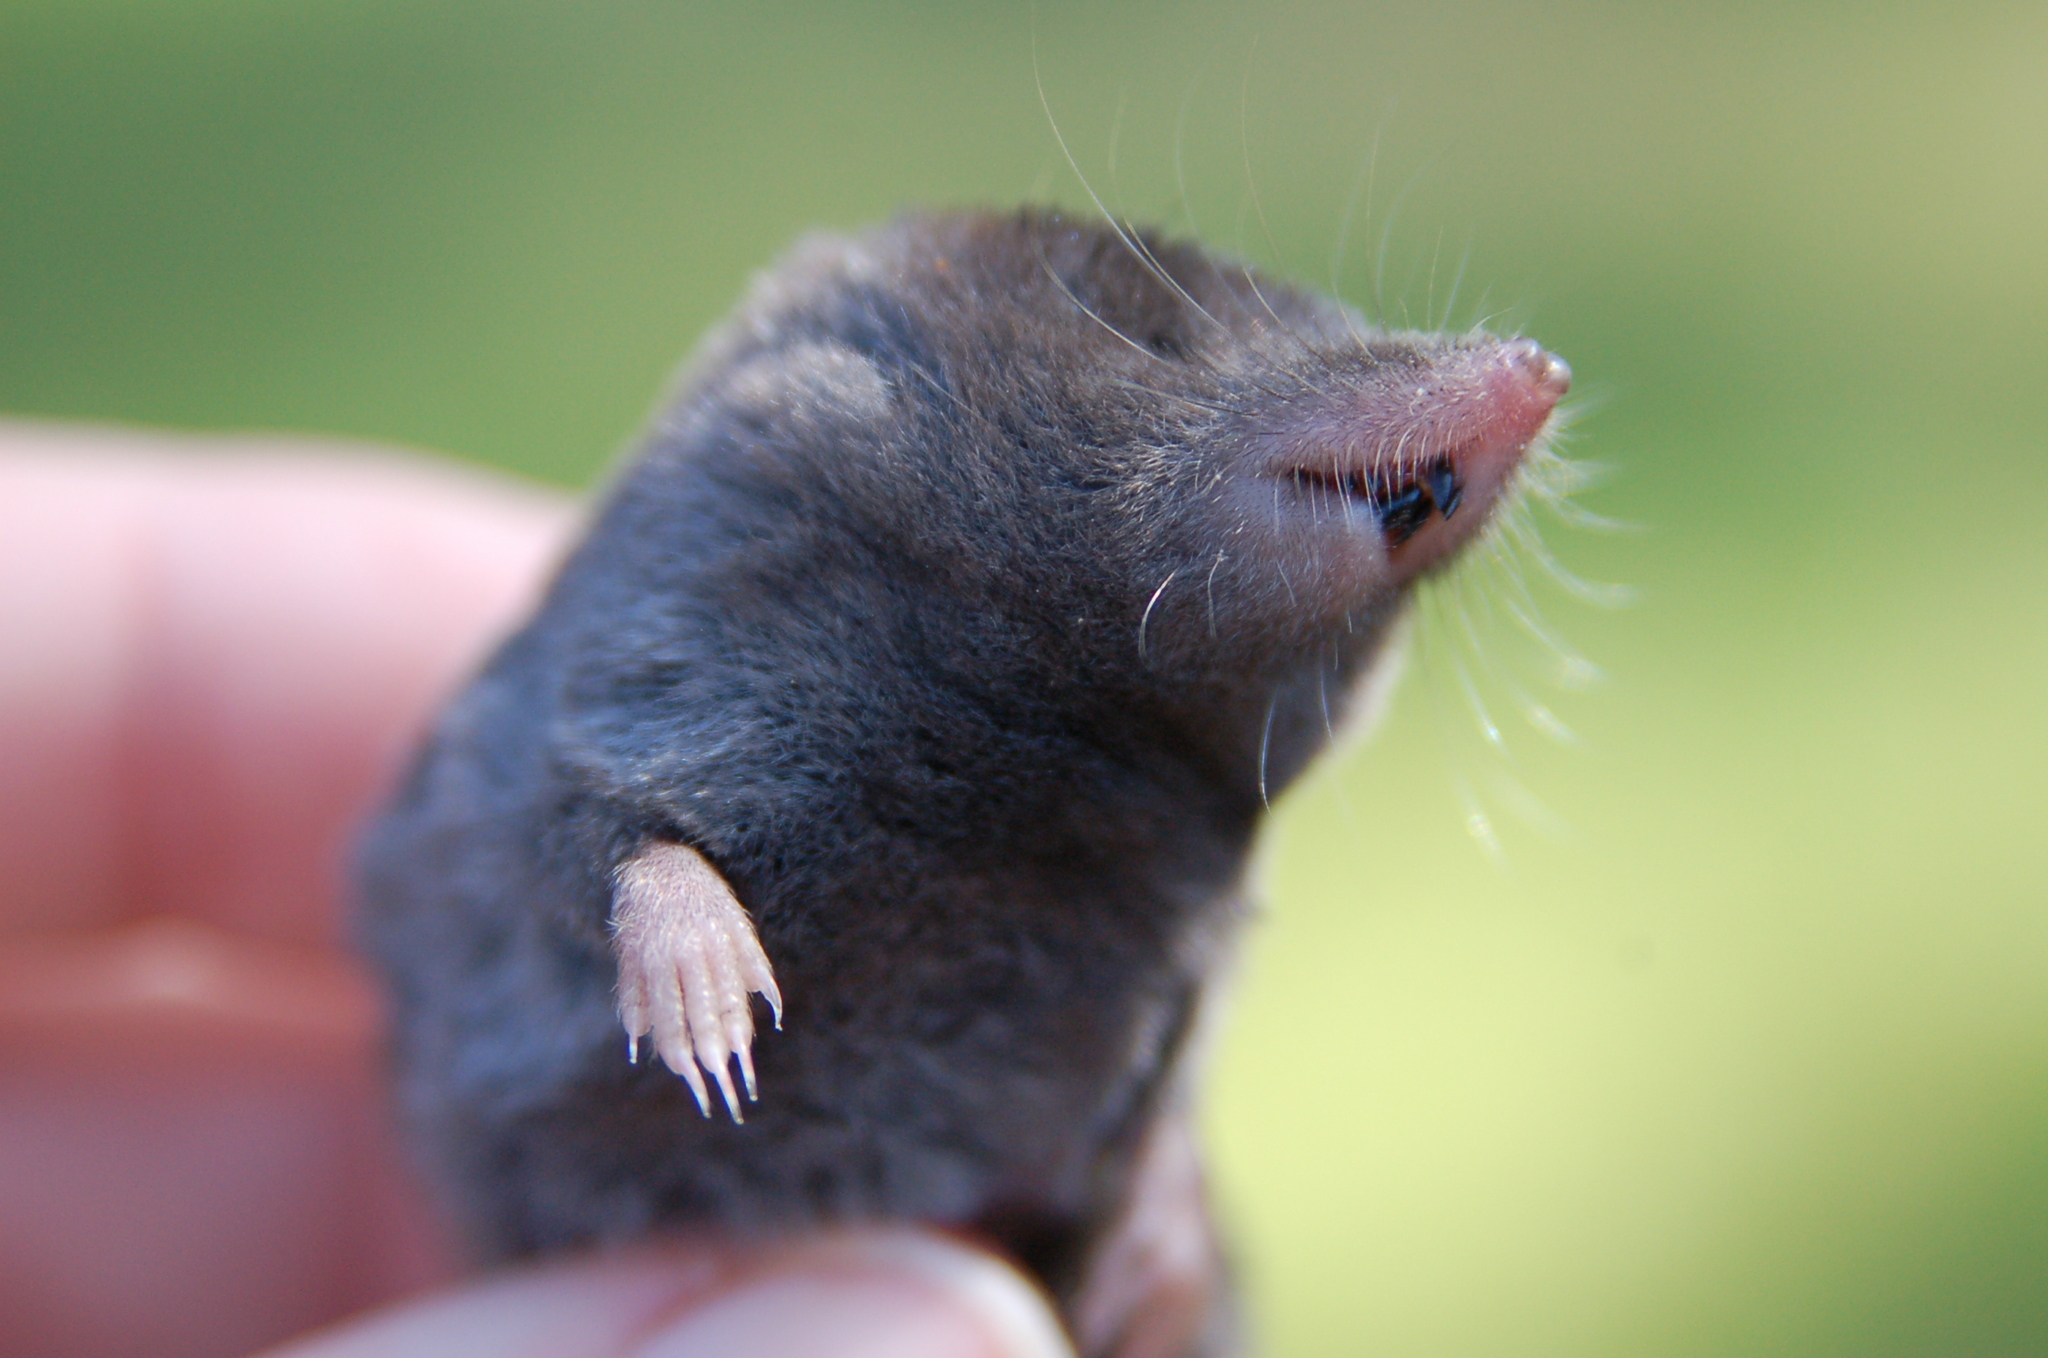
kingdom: Animalia
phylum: Chordata
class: Mammalia
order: Soricomorpha
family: Soricidae
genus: Blarina
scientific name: Blarina carolinensis
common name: Southern short-tailed shrew
